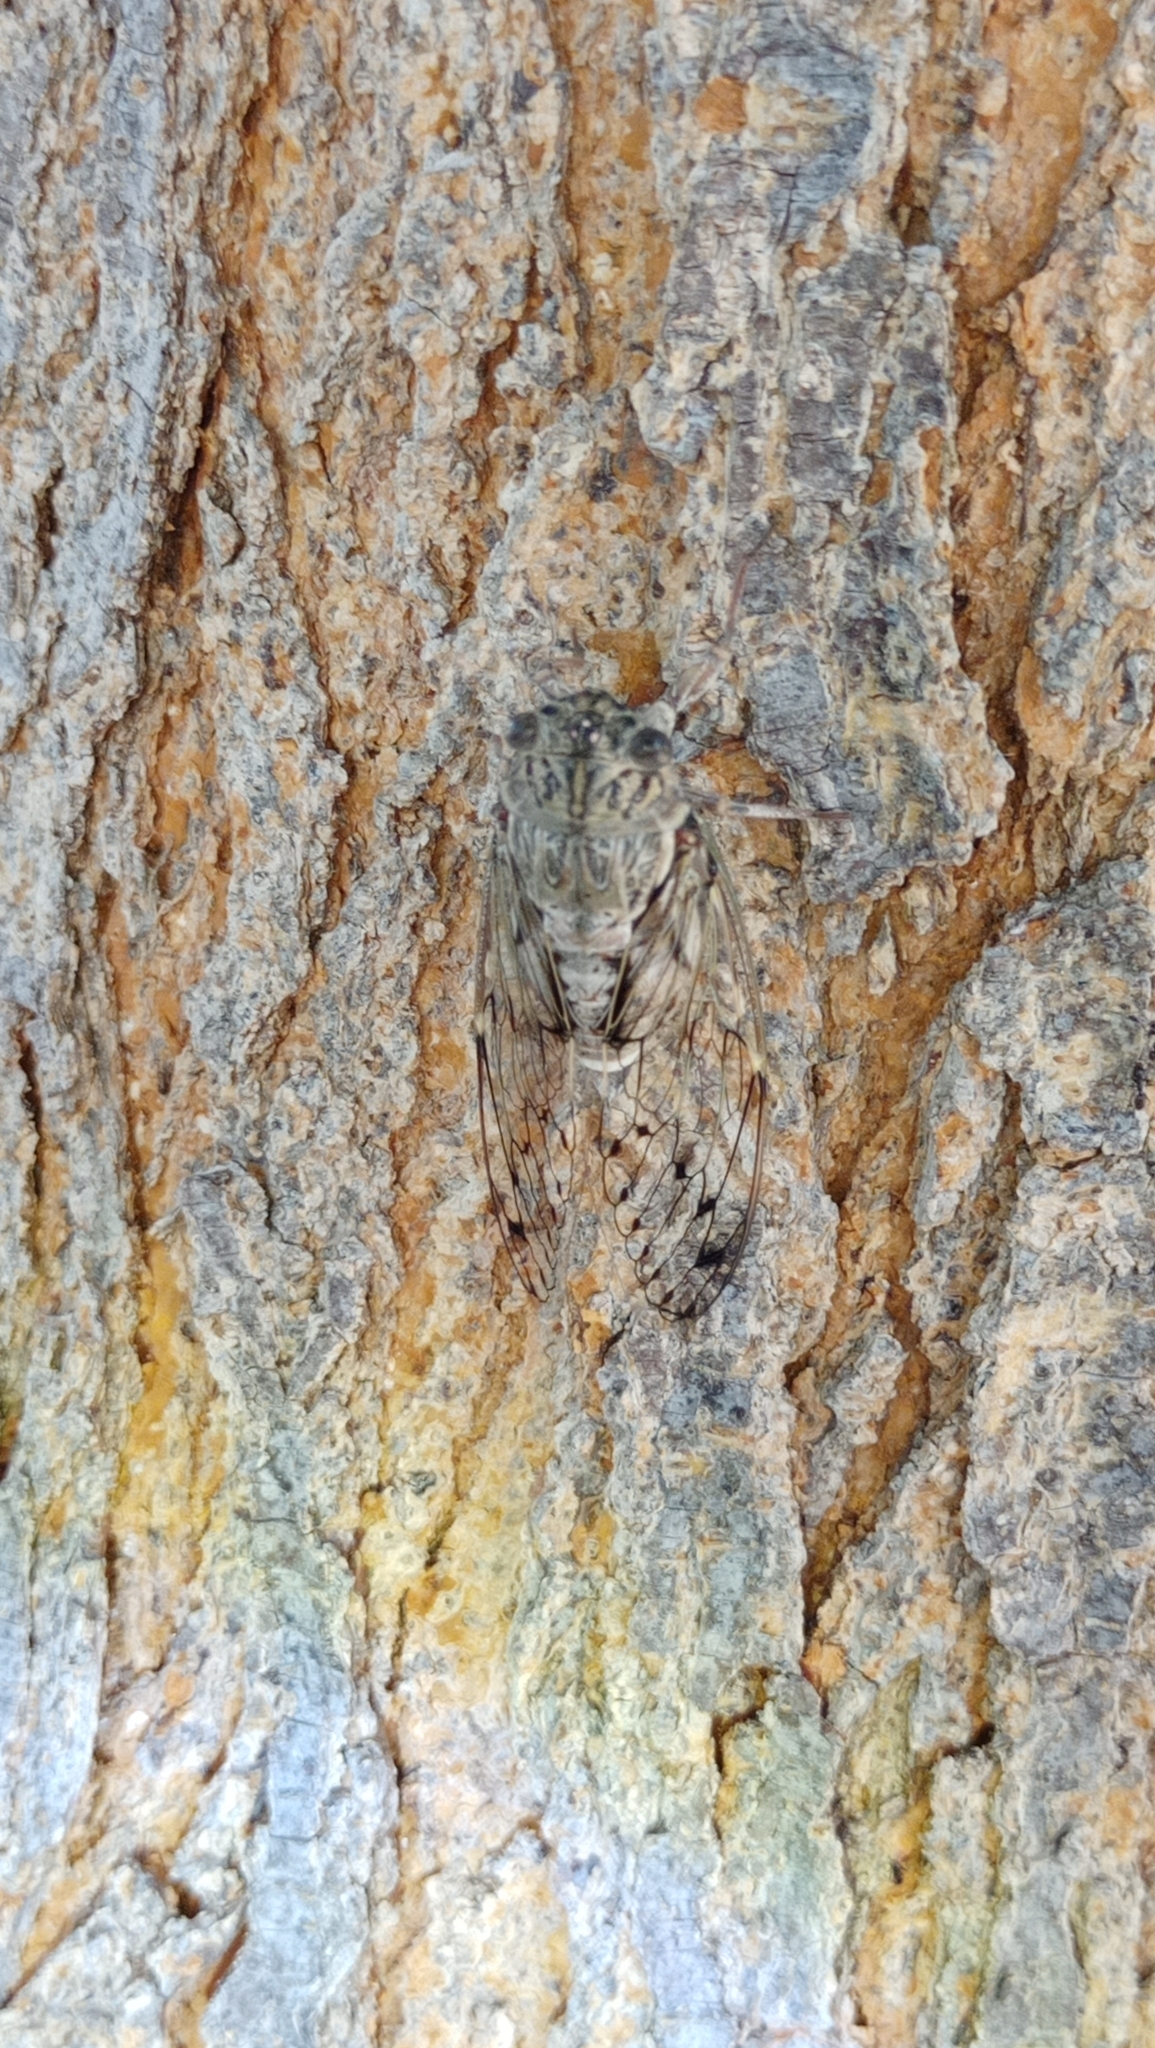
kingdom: Animalia
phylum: Arthropoda
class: Insecta
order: Hemiptera
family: Cicadidae
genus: Cicada
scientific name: Cicada mordoganensis
